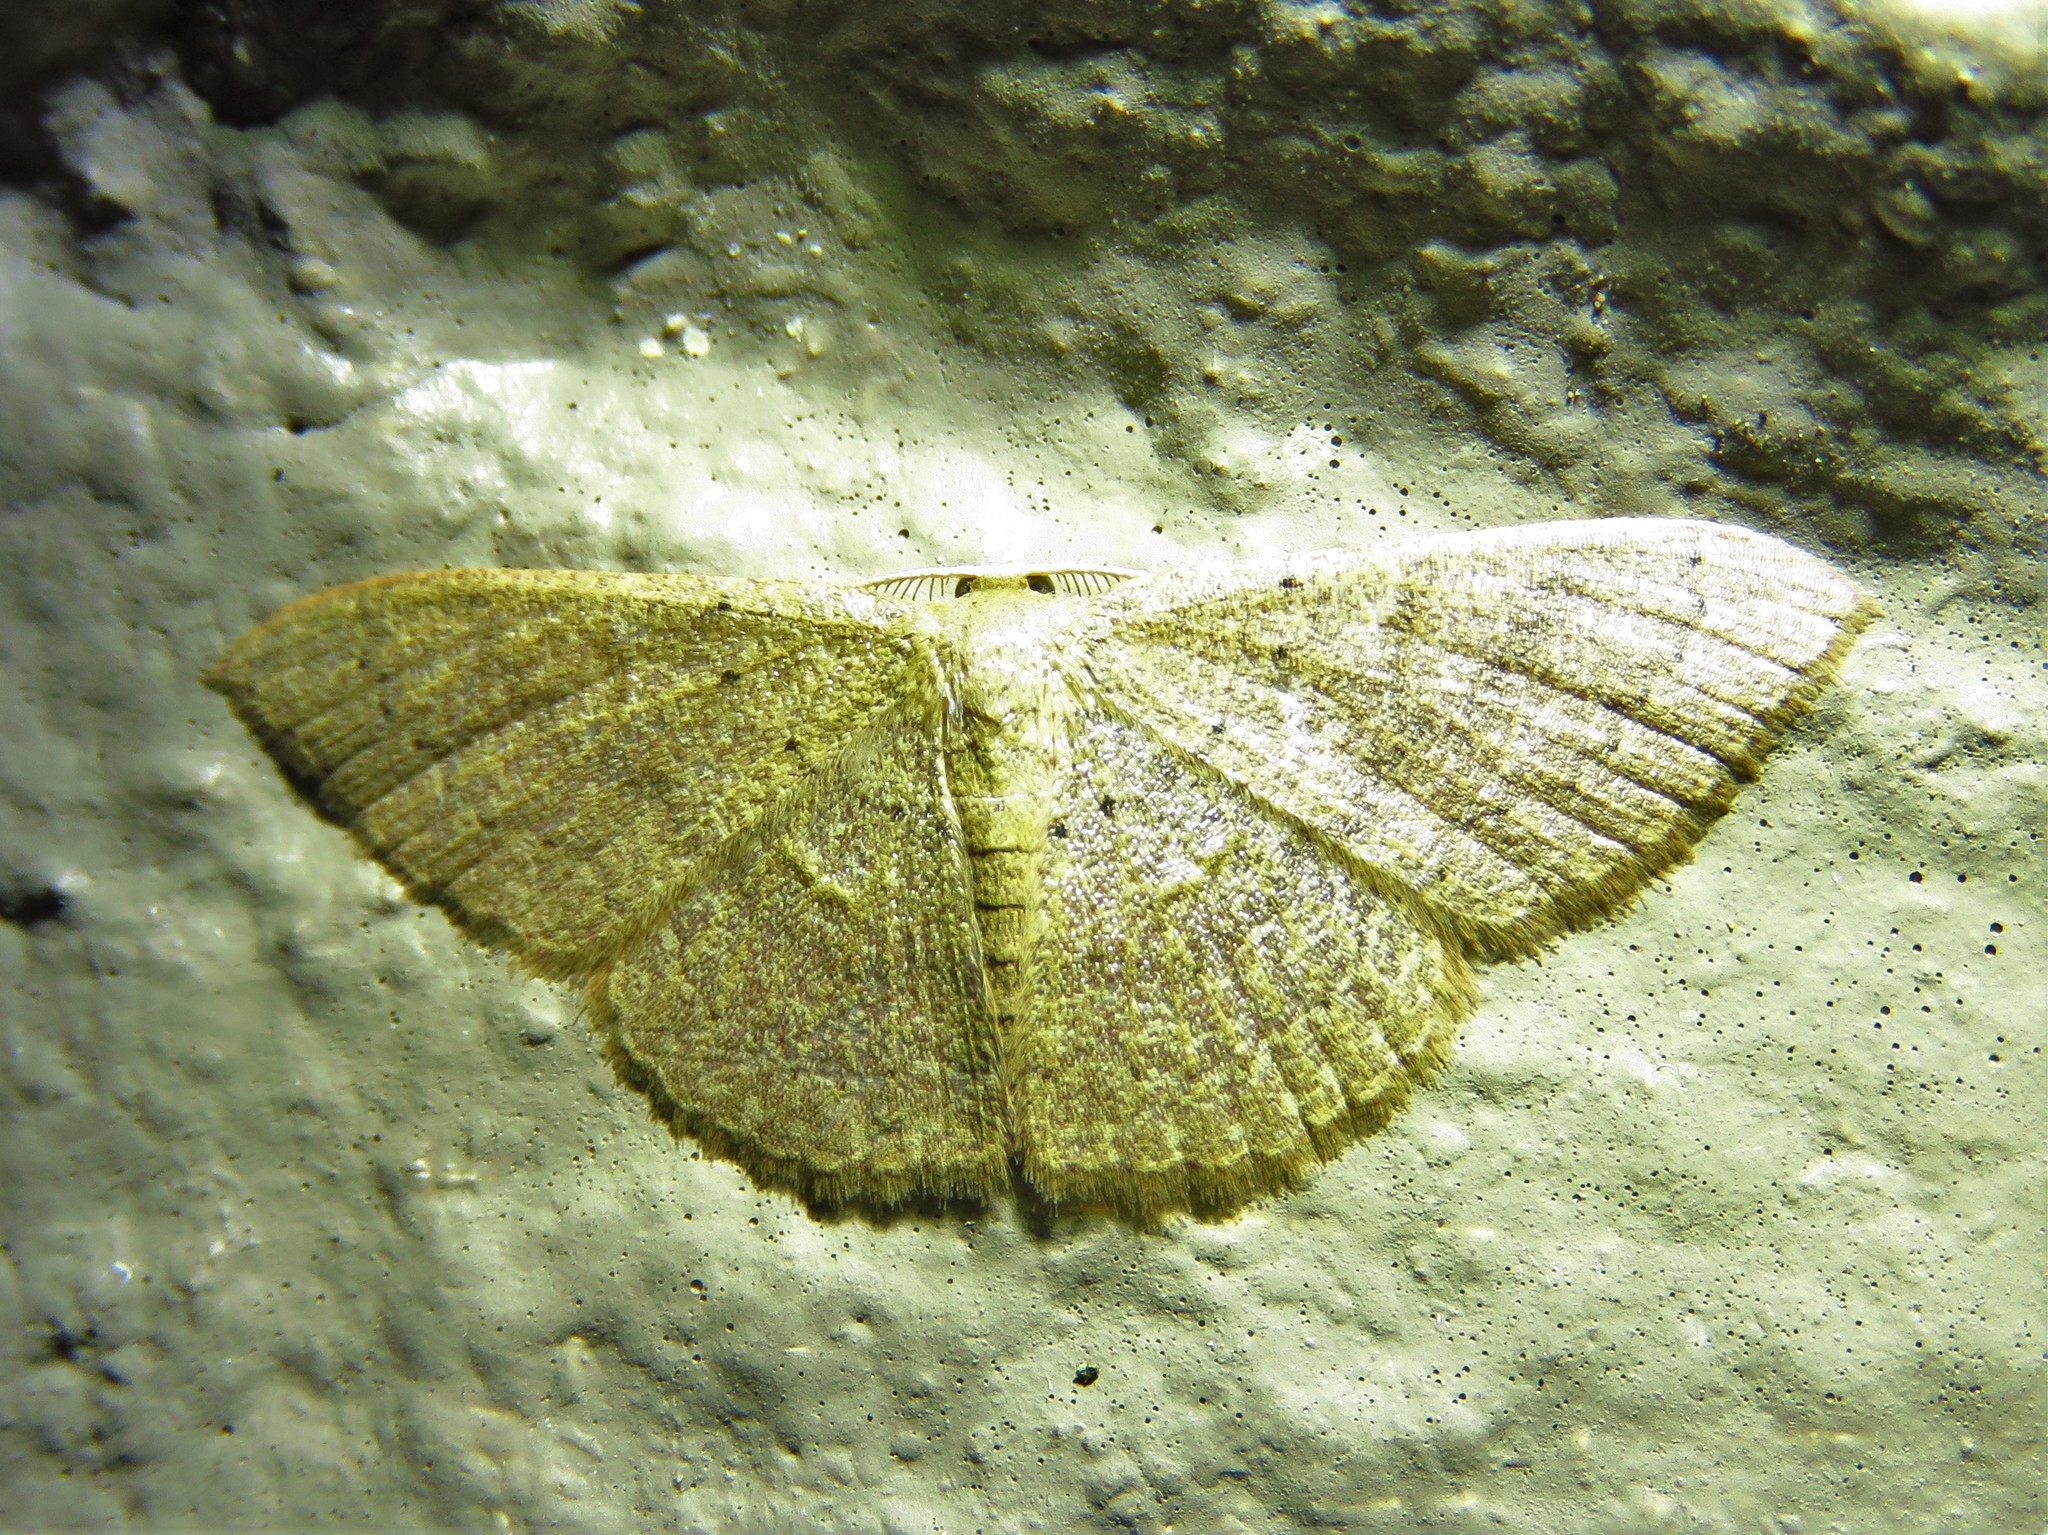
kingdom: Animalia
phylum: Arthropoda
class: Insecta
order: Lepidoptera
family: Geometridae
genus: Pleuroprucha
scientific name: Pleuroprucha insulsaria
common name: Common tan wave
